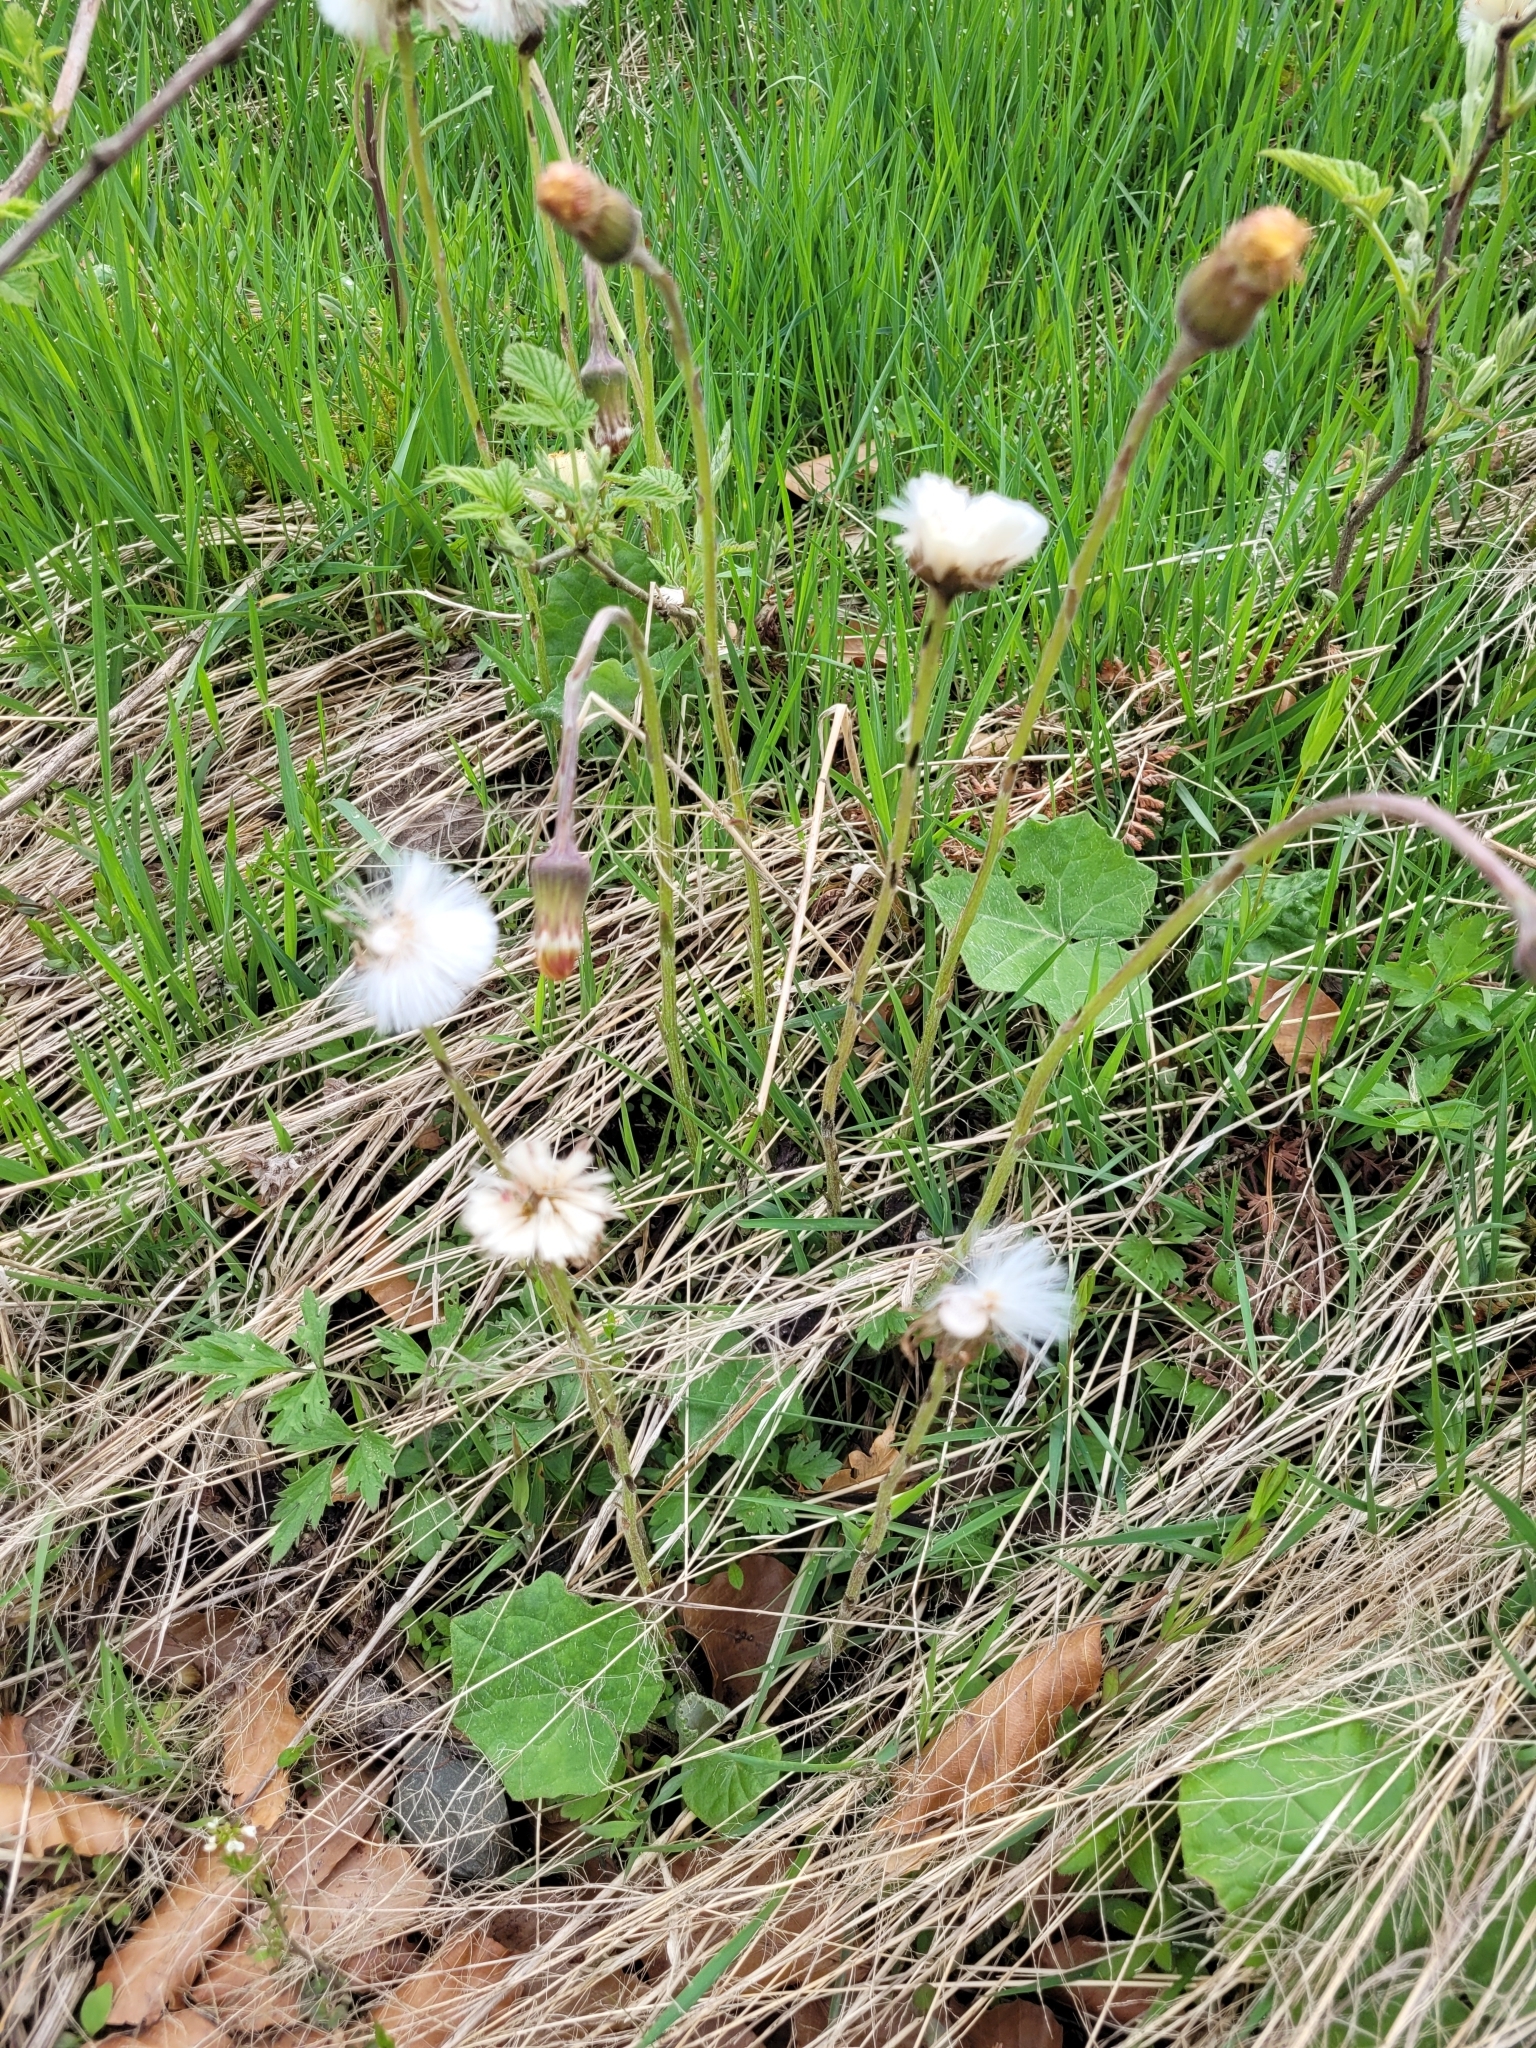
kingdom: Plantae
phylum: Tracheophyta
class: Magnoliopsida
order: Asterales
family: Asteraceae
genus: Tussilago
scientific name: Tussilago farfara
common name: Coltsfoot
